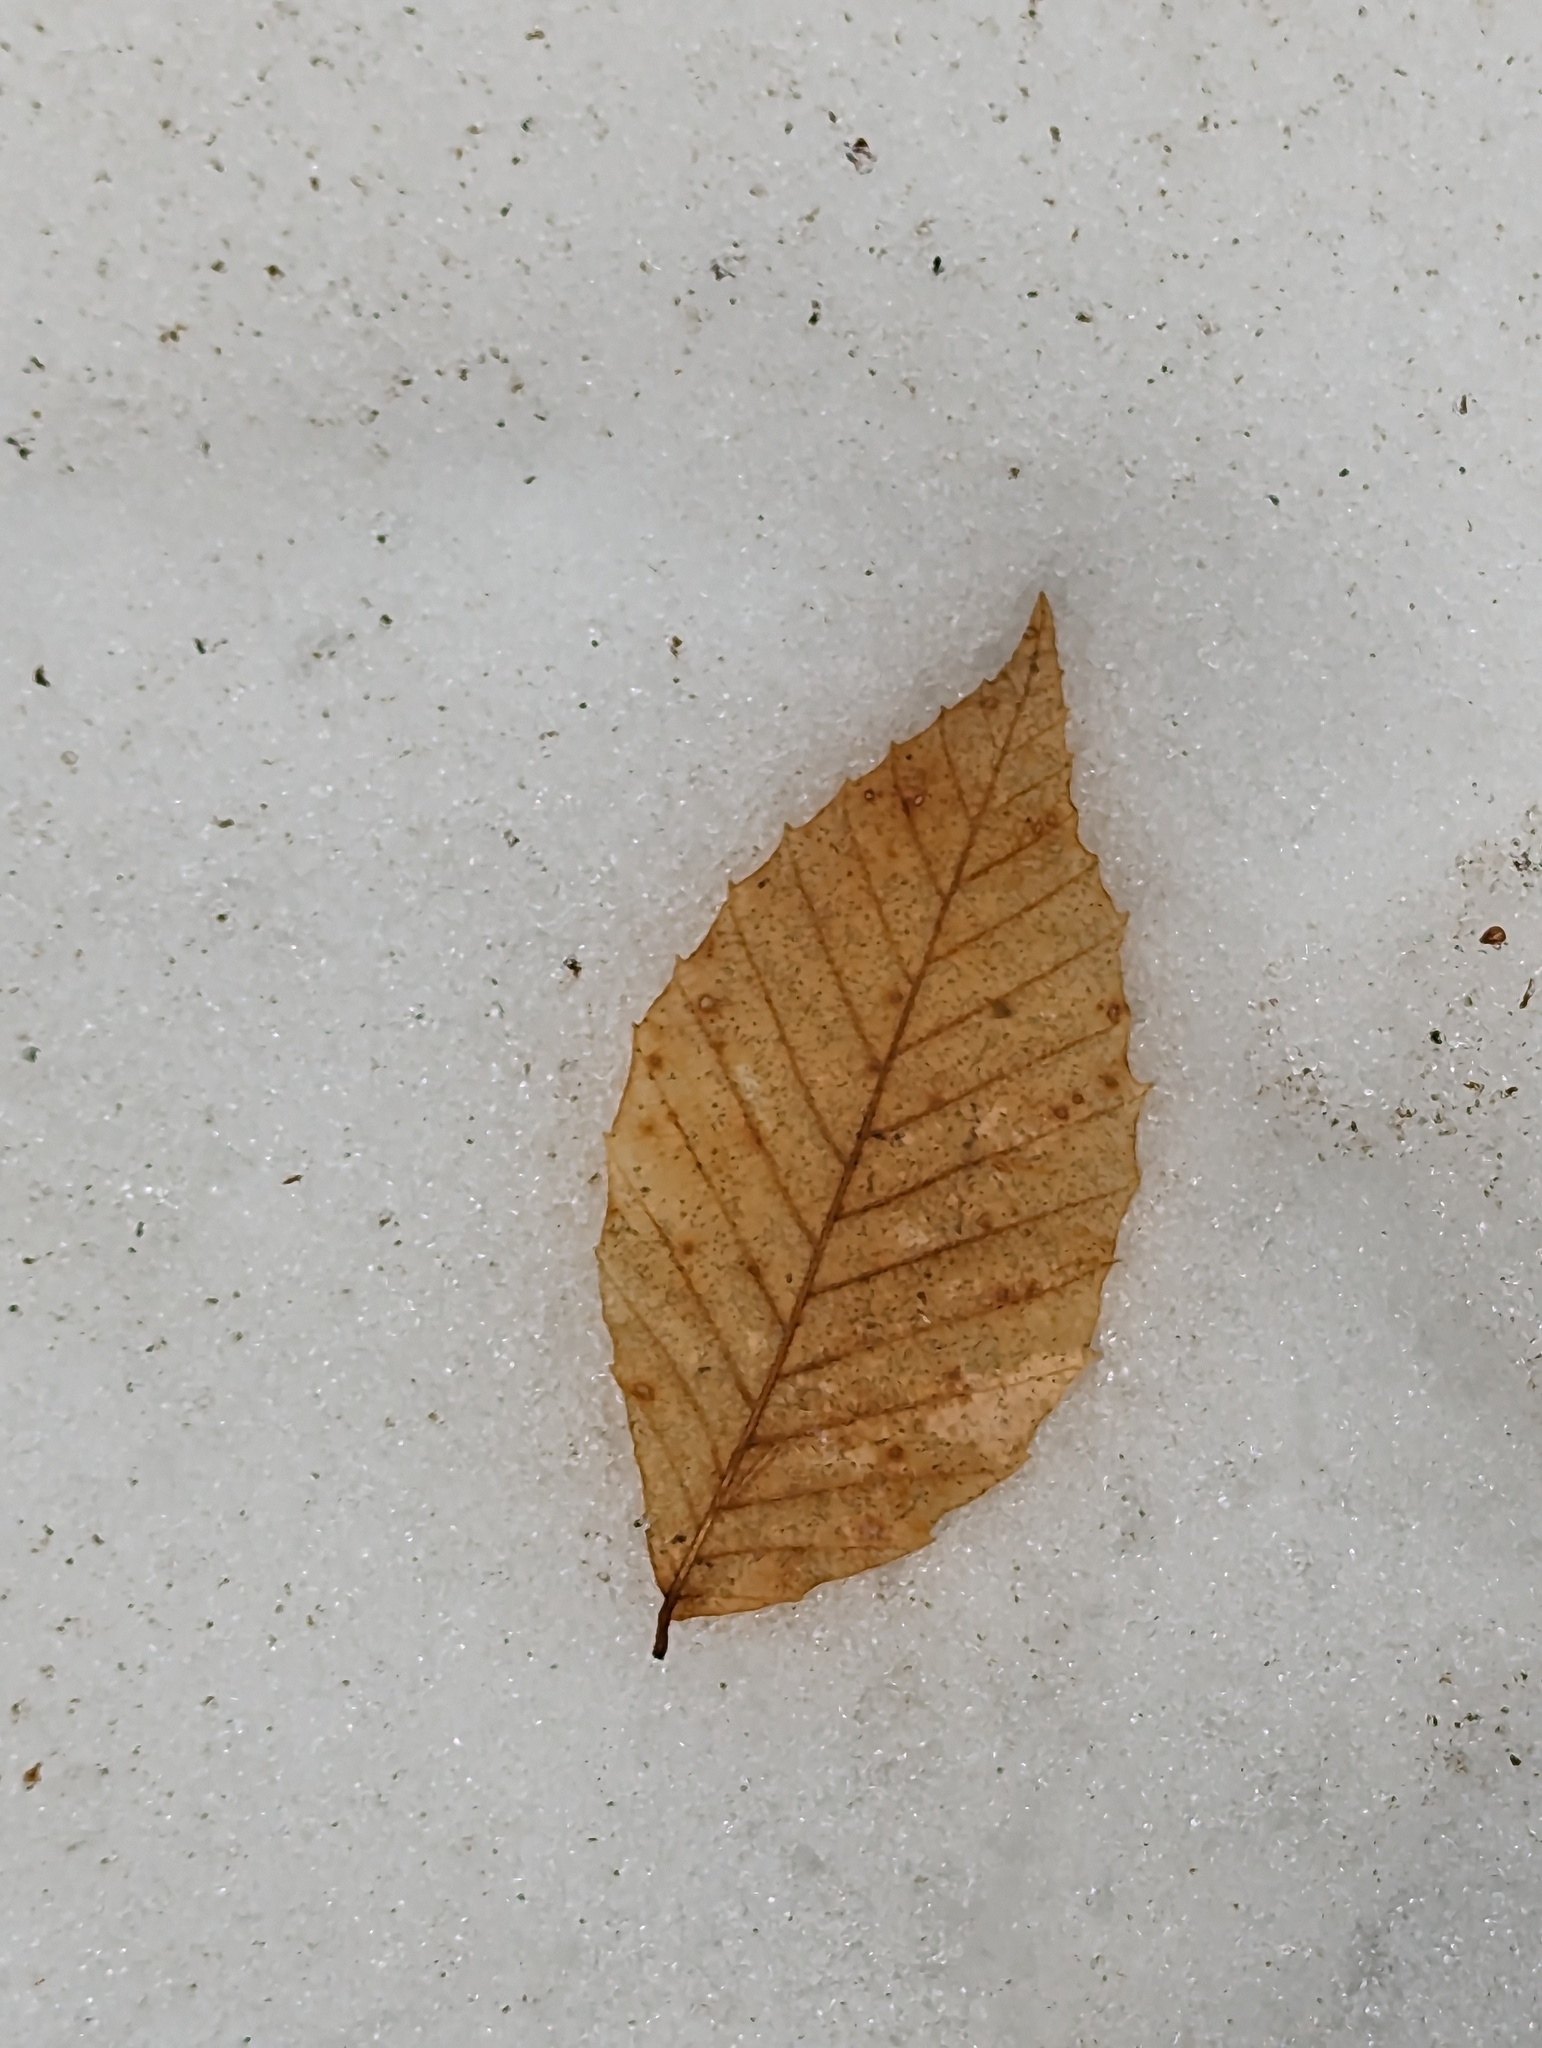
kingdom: Plantae
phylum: Tracheophyta
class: Magnoliopsida
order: Fagales
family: Fagaceae
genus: Fagus
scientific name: Fagus grandifolia
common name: American beech
